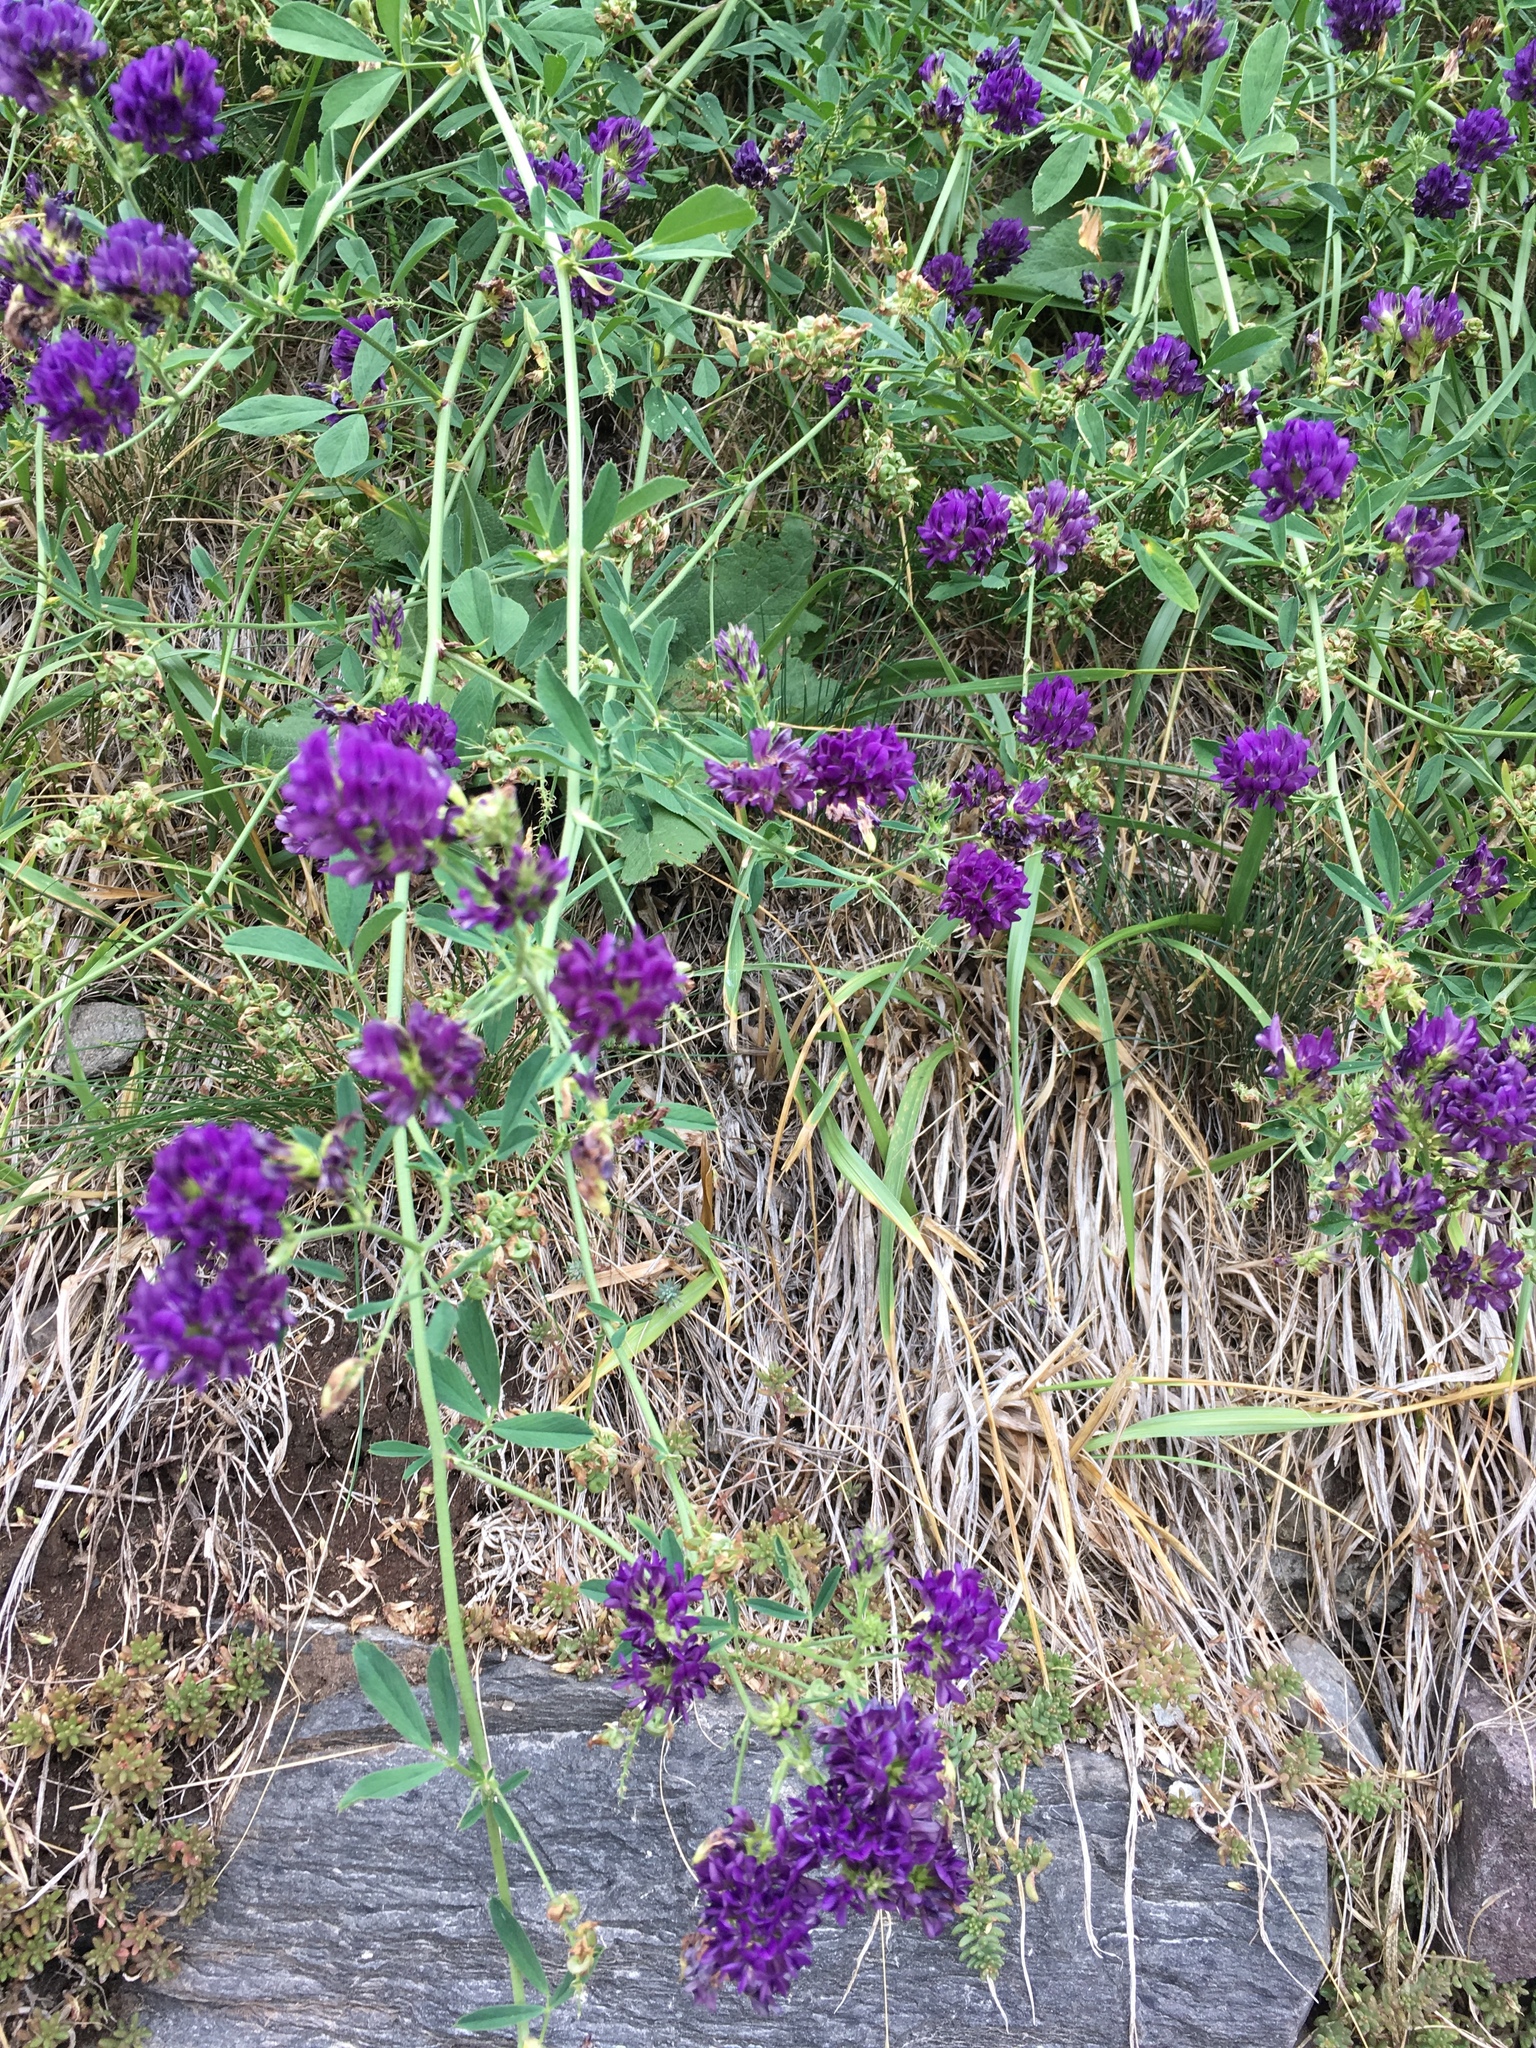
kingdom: Plantae
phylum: Tracheophyta
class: Magnoliopsida
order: Fabales
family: Fabaceae
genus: Medicago
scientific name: Medicago sativa
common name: Alfalfa
